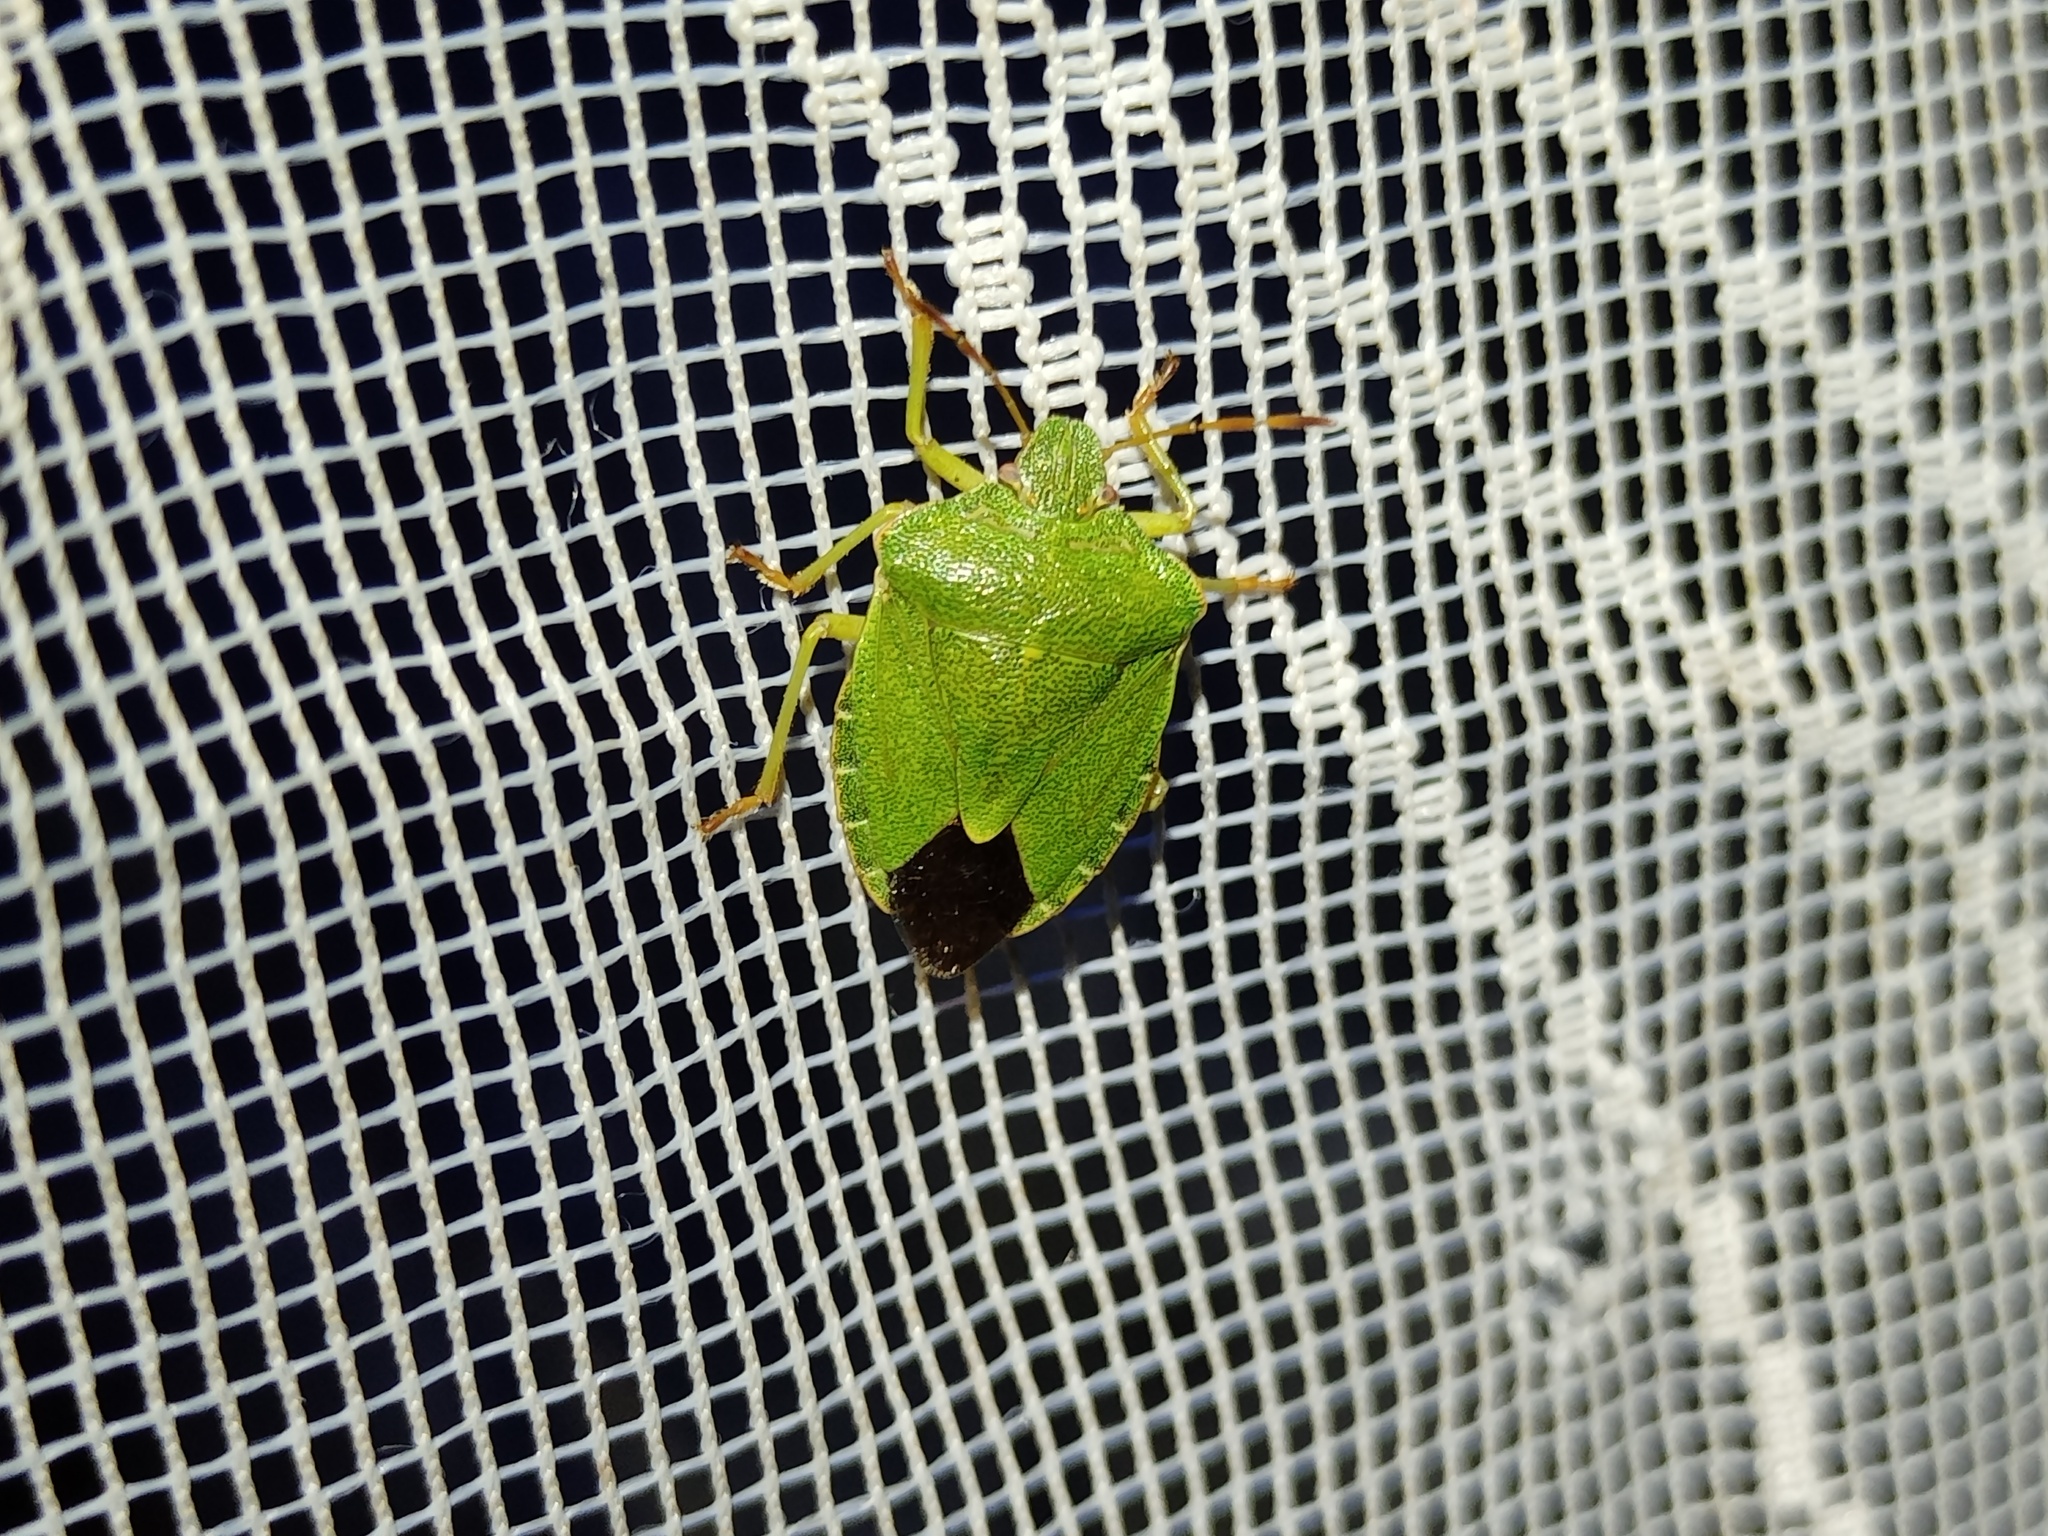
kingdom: Animalia
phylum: Arthropoda
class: Insecta
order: Hemiptera
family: Pentatomidae
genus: Palomena
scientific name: Palomena prasina
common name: Green shieldbug
